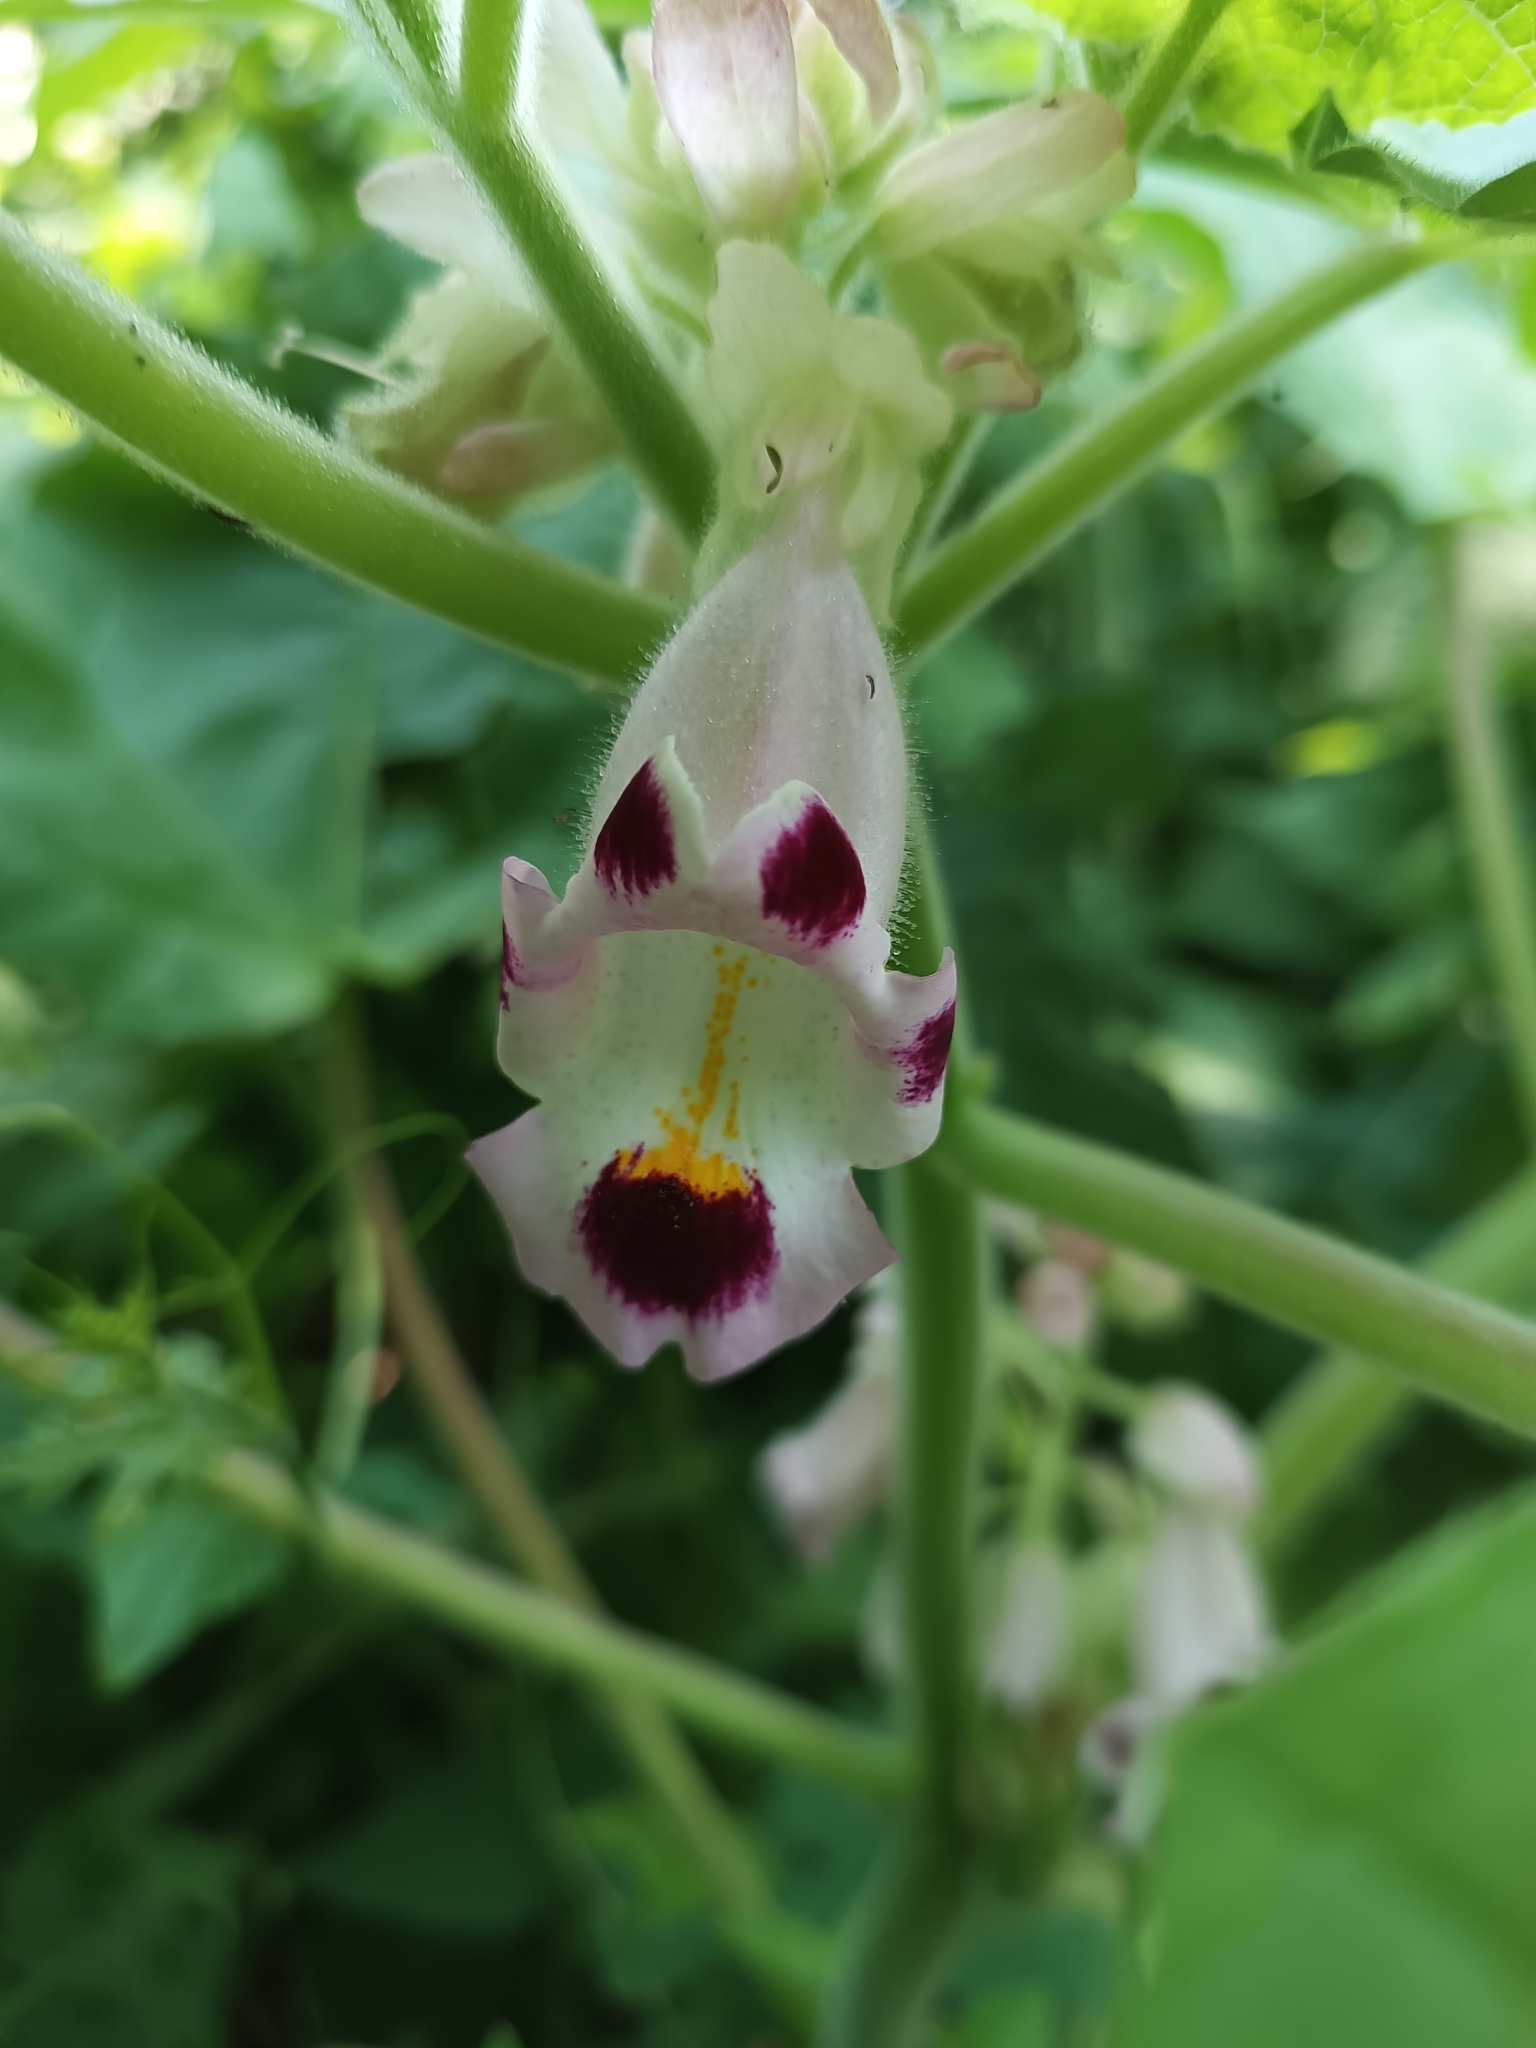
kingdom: Plantae
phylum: Tracheophyta
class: Magnoliopsida
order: Lamiales
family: Martyniaceae
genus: Martynia
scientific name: Martynia annua
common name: Tiger's-claw
